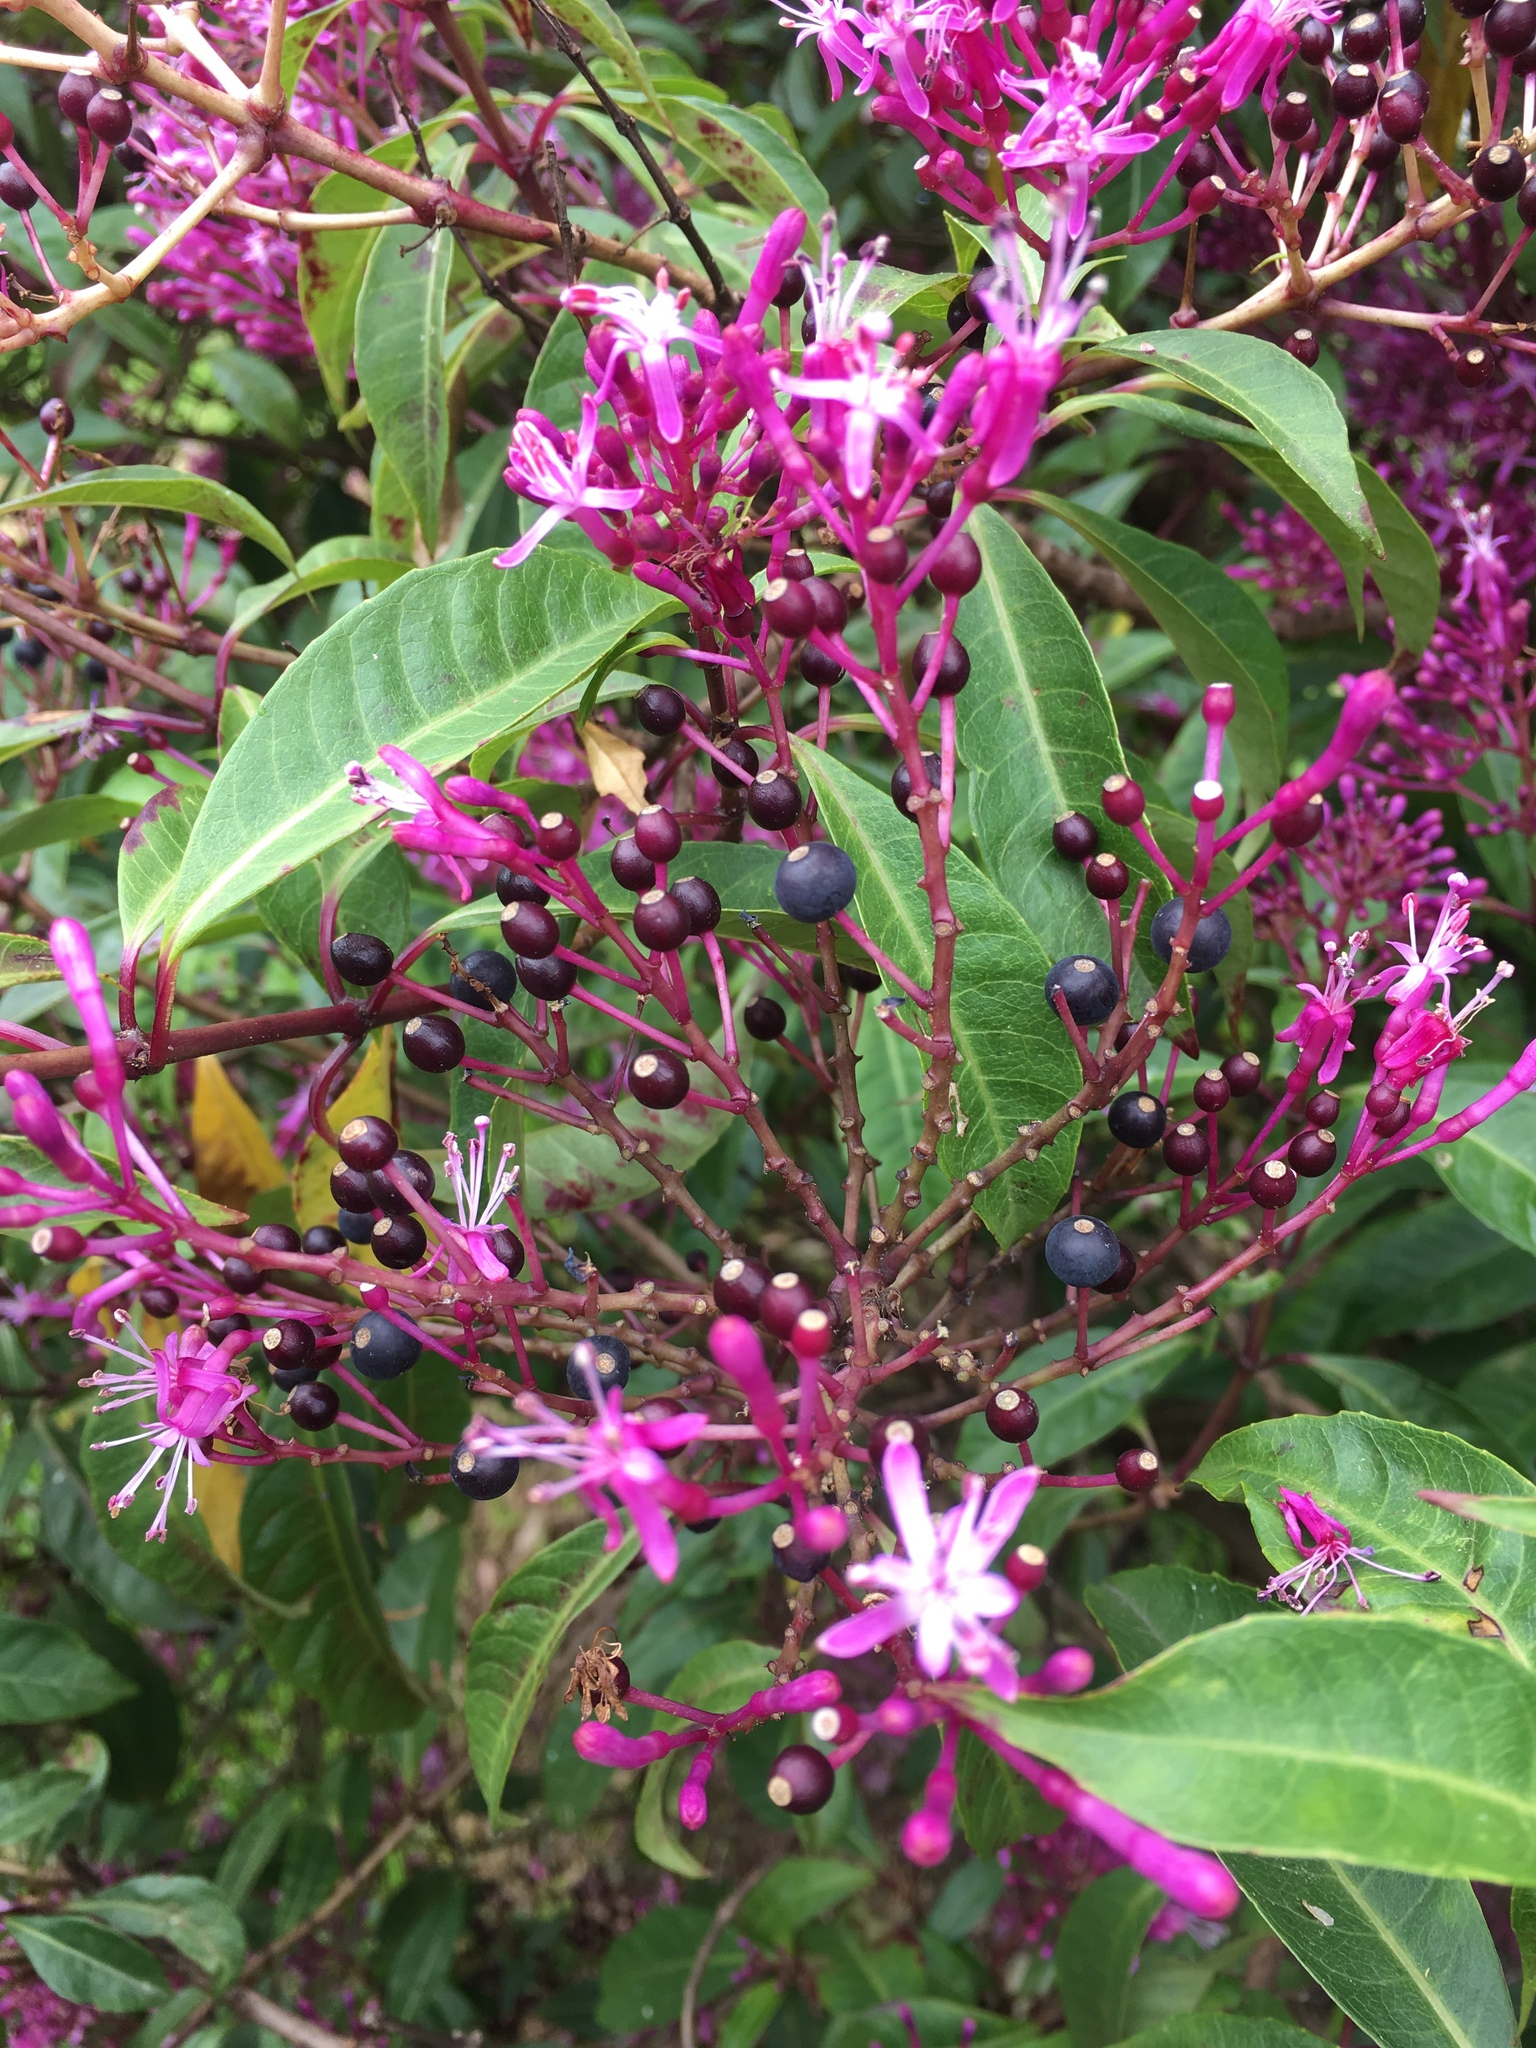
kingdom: Plantae
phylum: Tracheophyta
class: Magnoliopsida
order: Myrtales
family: Onagraceae
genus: Fuchsia
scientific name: Fuchsia paniculata
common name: Shrubby fuchsia
